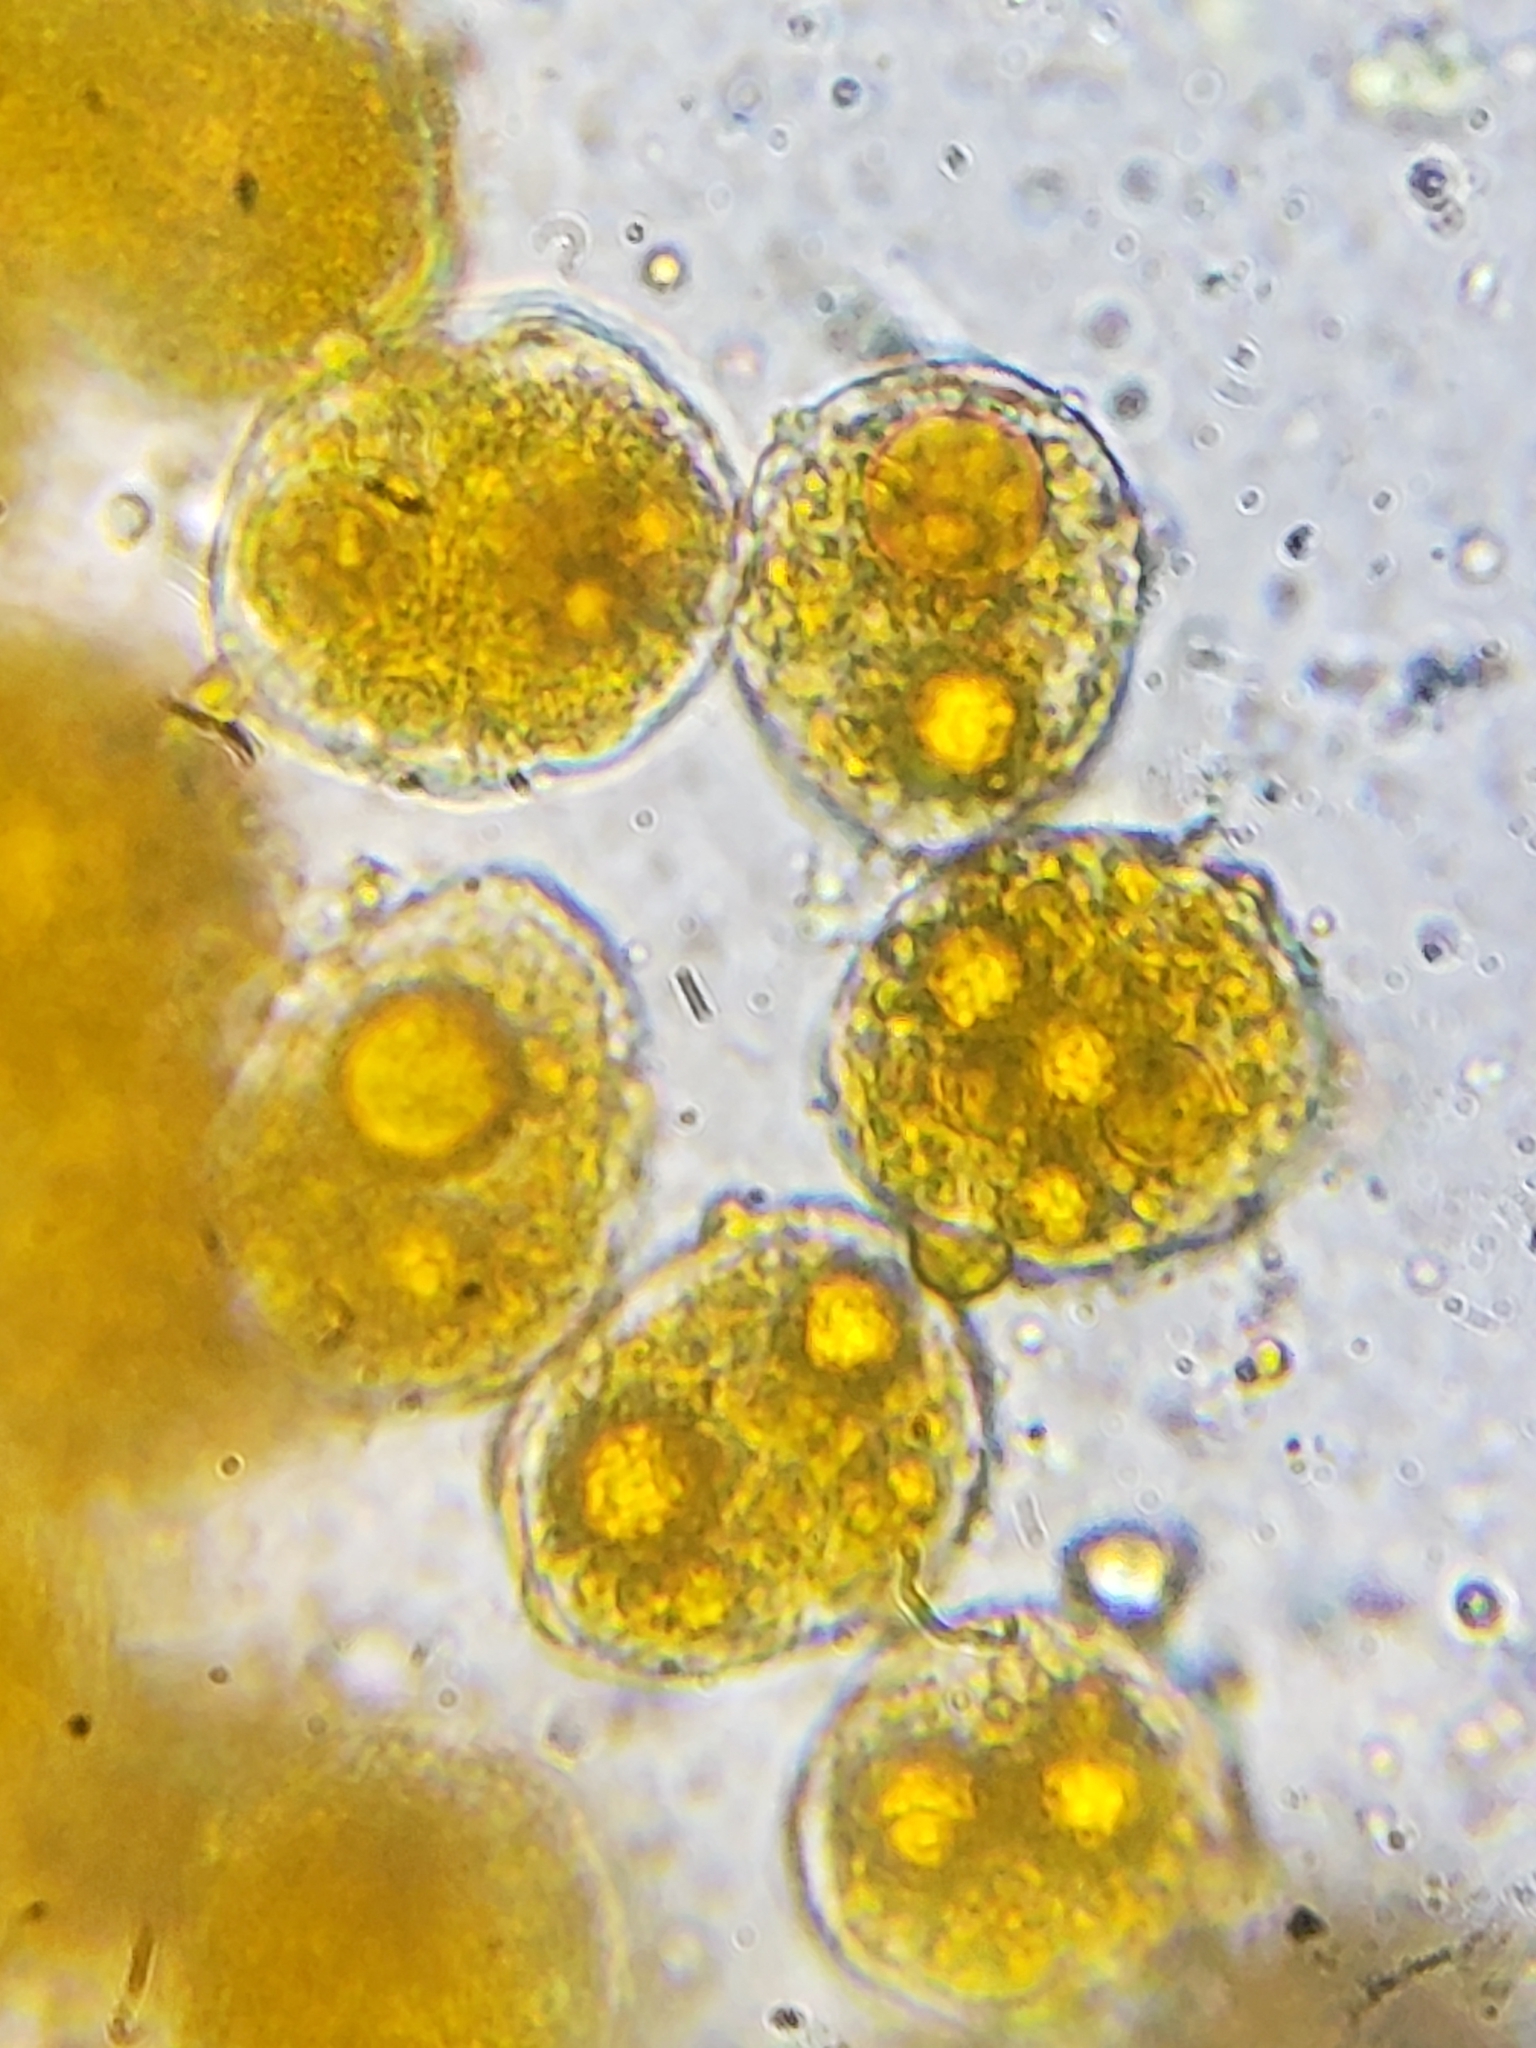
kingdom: Fungi
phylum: Basidiomycota
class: Pucciniomycetes
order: Pucciniales
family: Pucciniaceae
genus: Puccinia
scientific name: Puccinia podophylli
